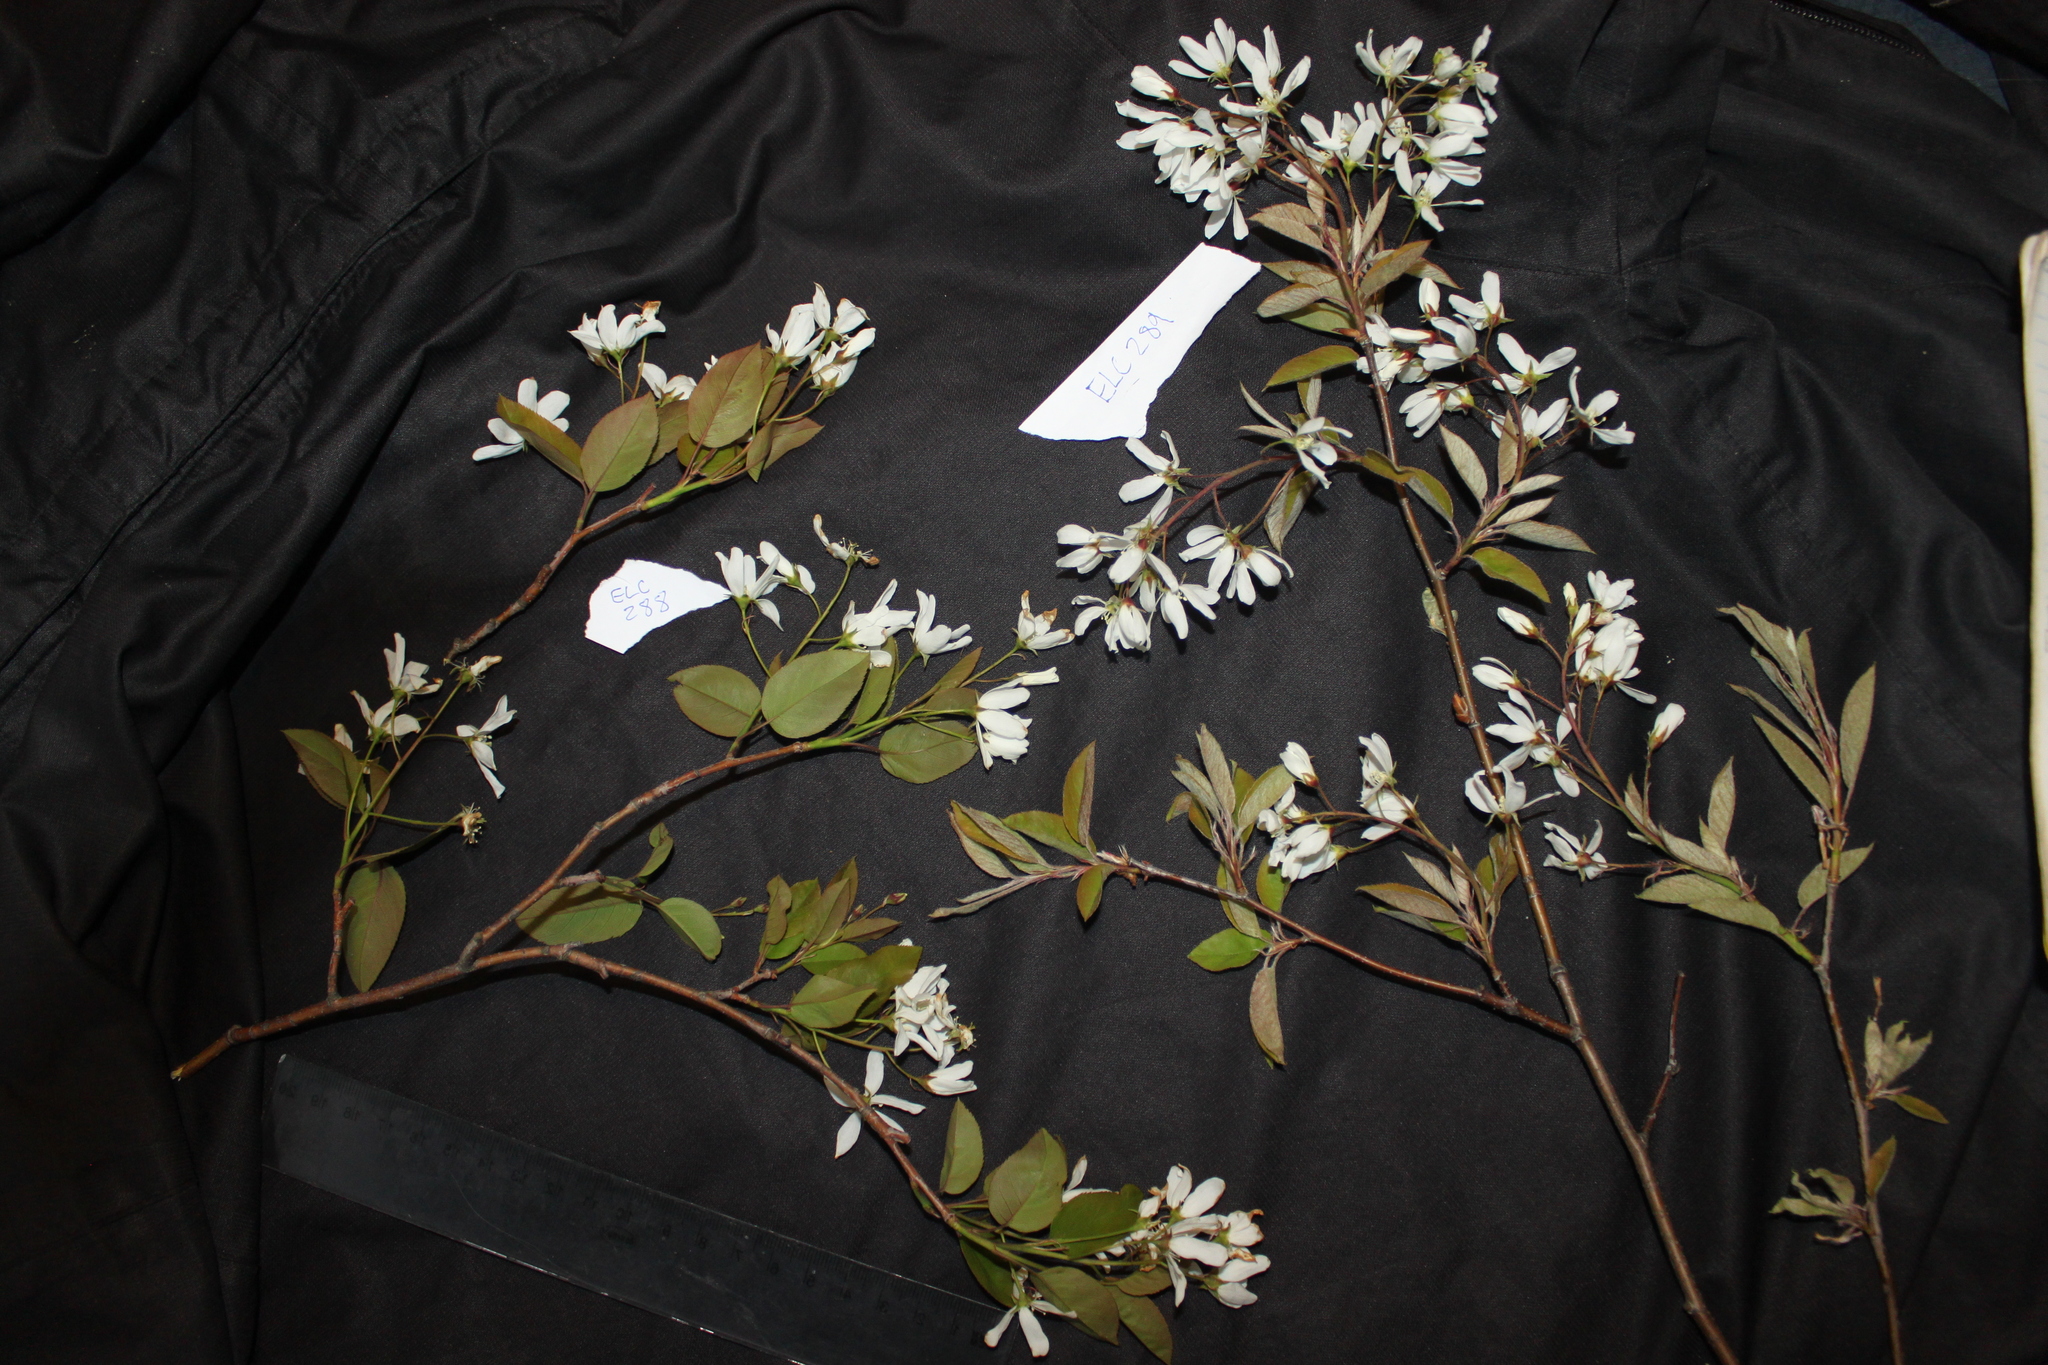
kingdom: Plantae
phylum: Tracheophyta
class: Magnoliopsida
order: Rosales
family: Rosaceae
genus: Amelanchier
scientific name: Amelanchier arborea
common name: Downy serviceberry
